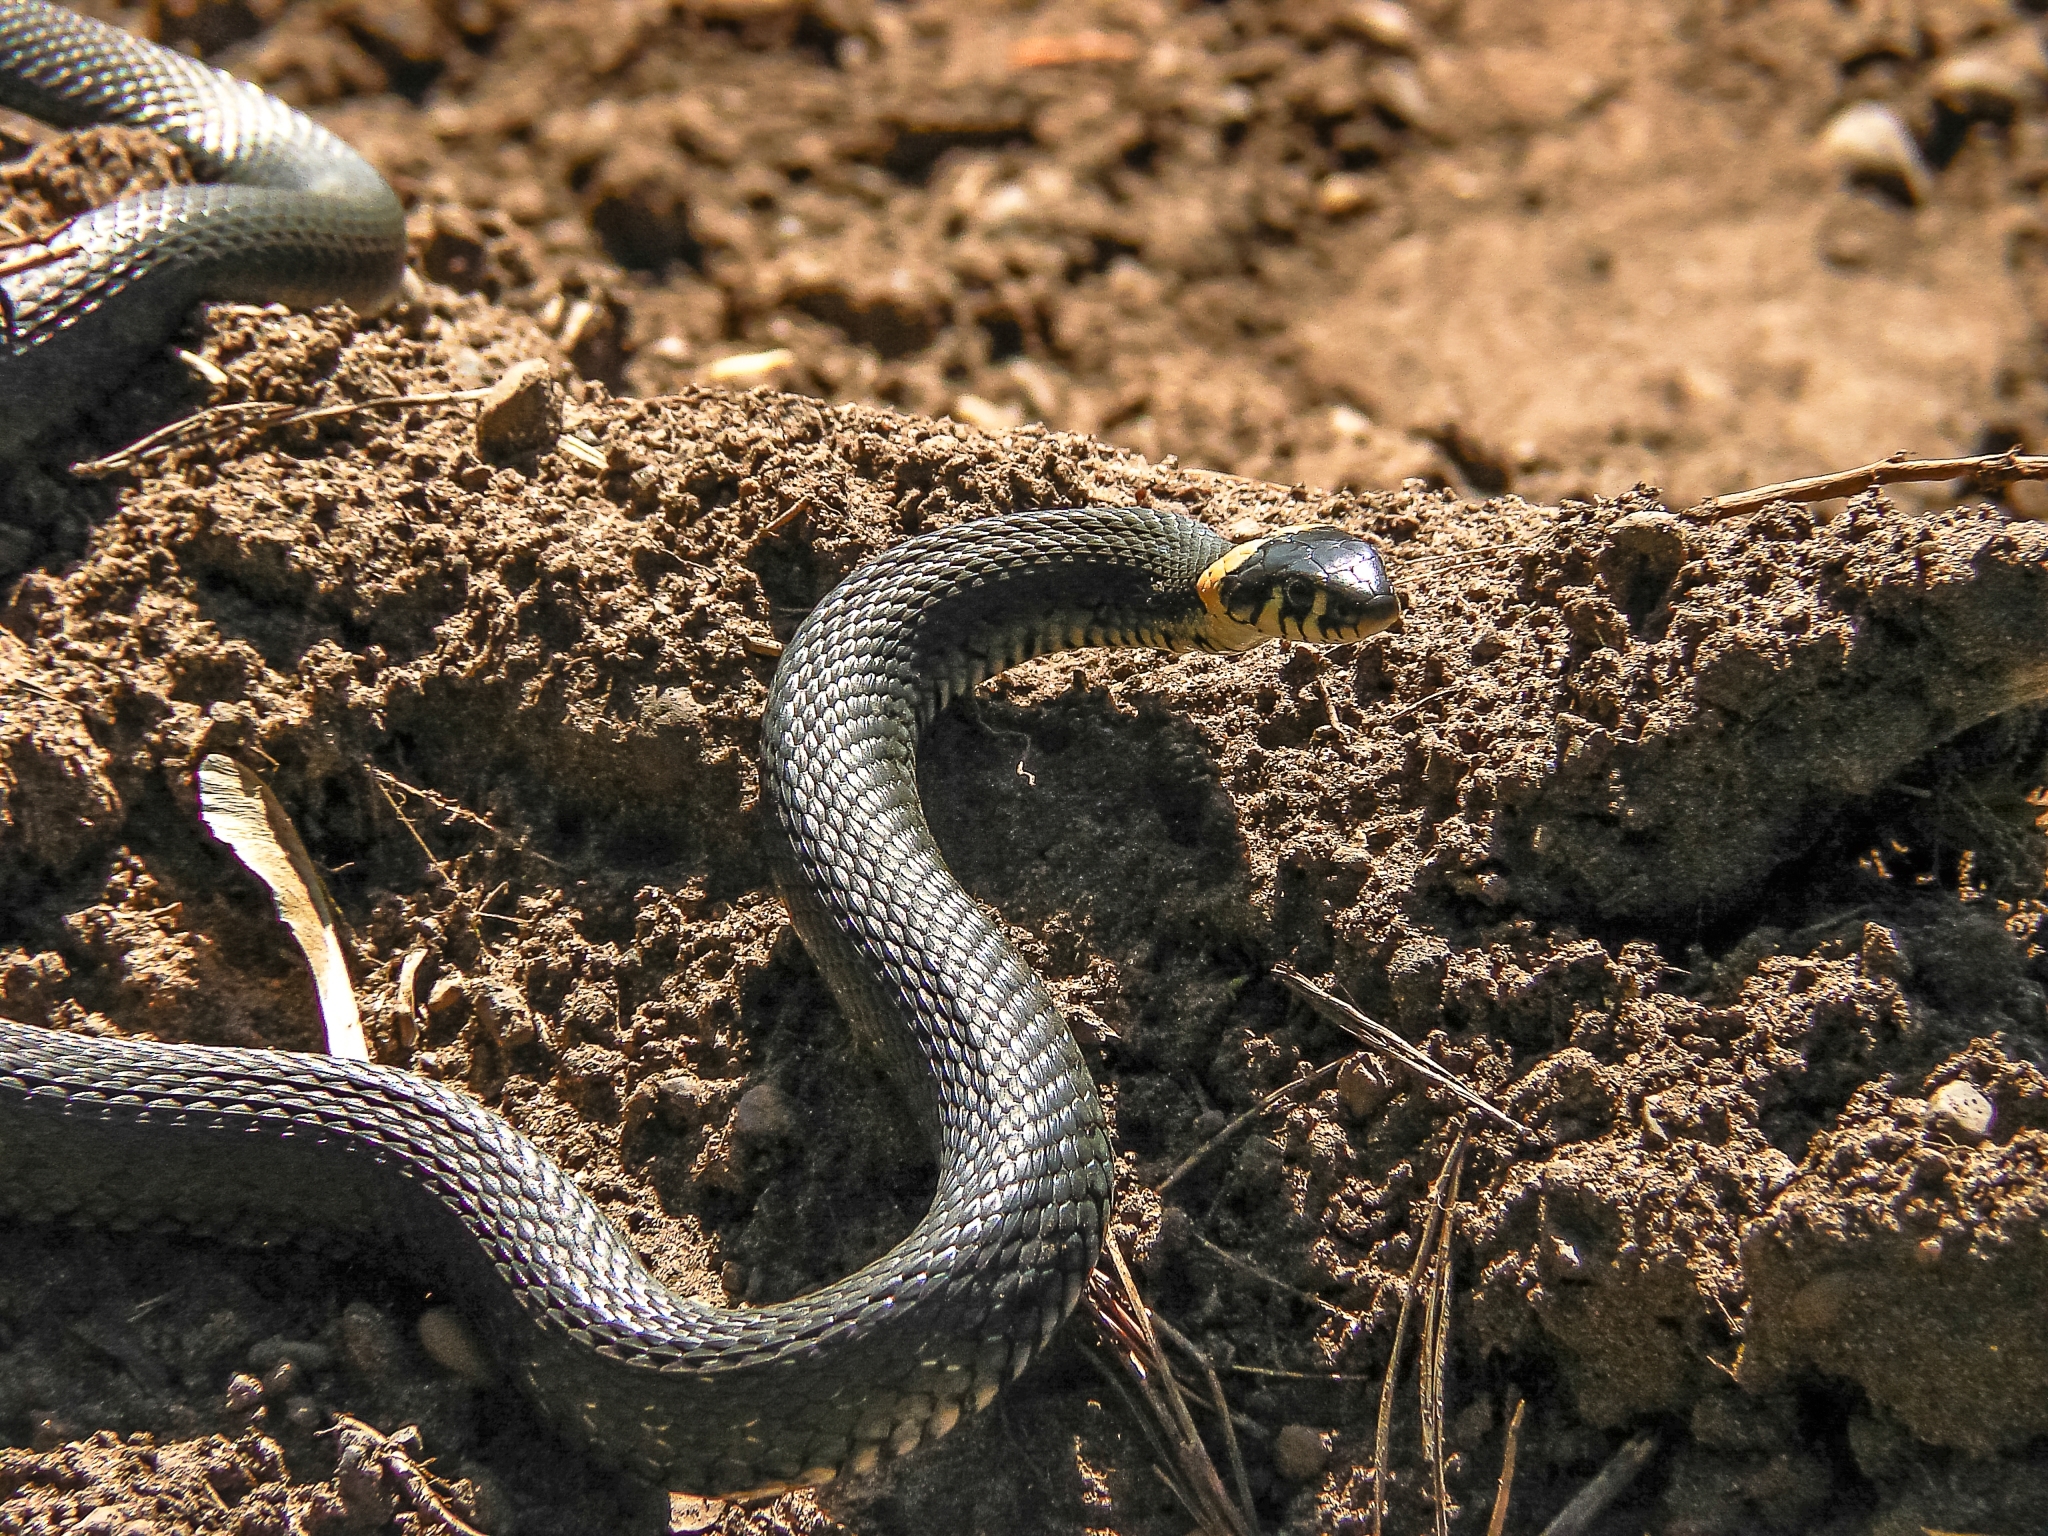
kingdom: Animalia
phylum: Chordata
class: Squamata
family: Colubridae
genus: Natrix
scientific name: Natrix natrix
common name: Grass snake
